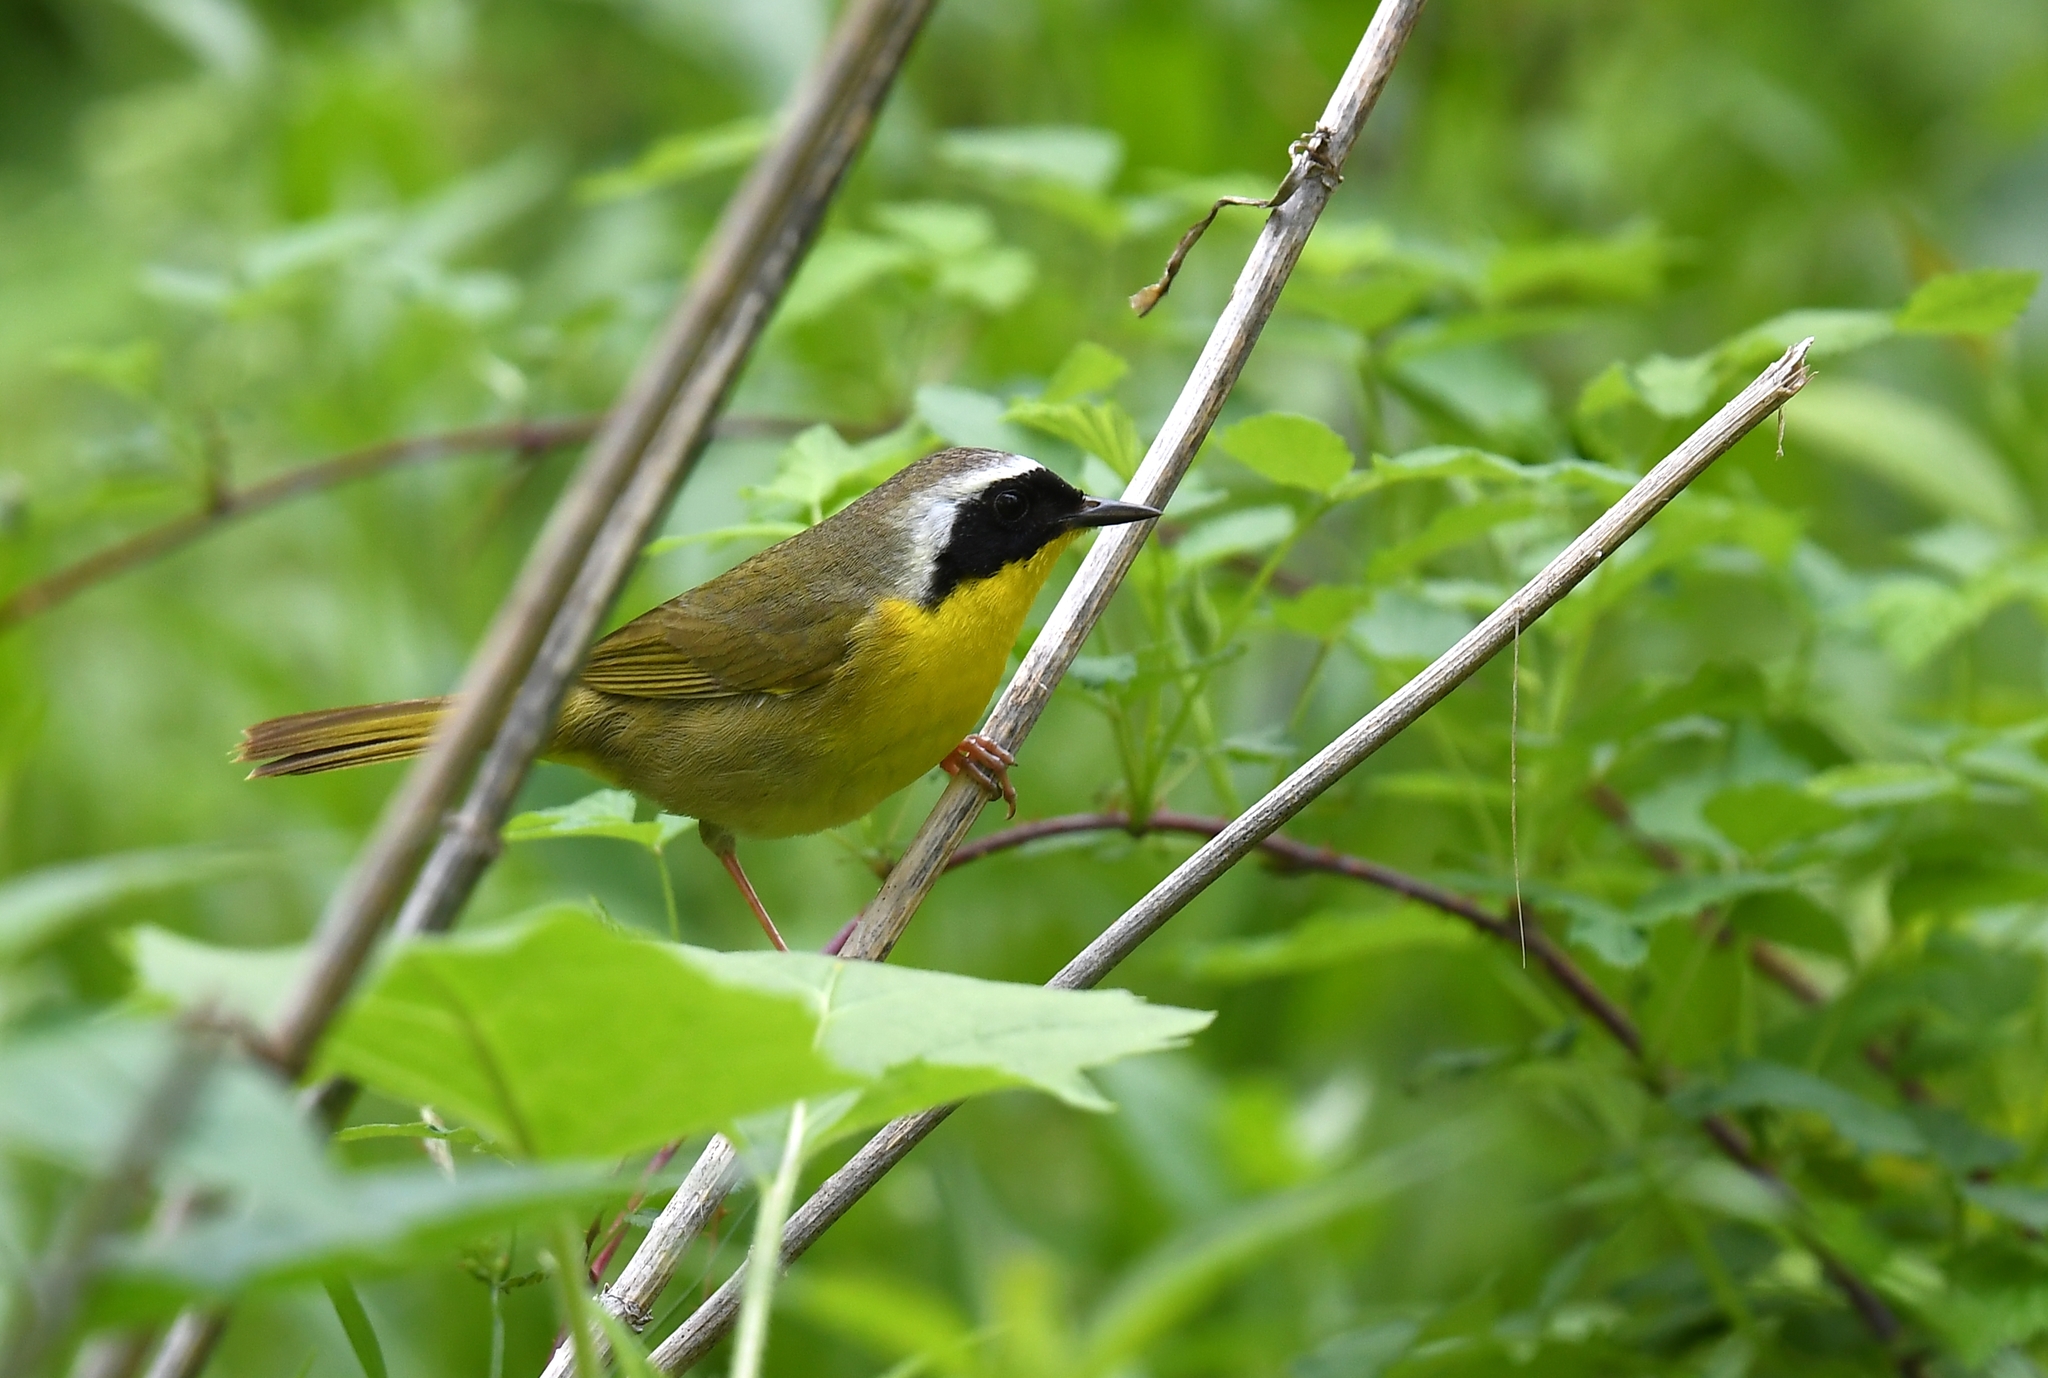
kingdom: Animalia
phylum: Chordata
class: Aves
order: Passeriformes
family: Parulidae
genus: Geothlypis
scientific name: Geothlypis trichas
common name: Common yellowthroat
